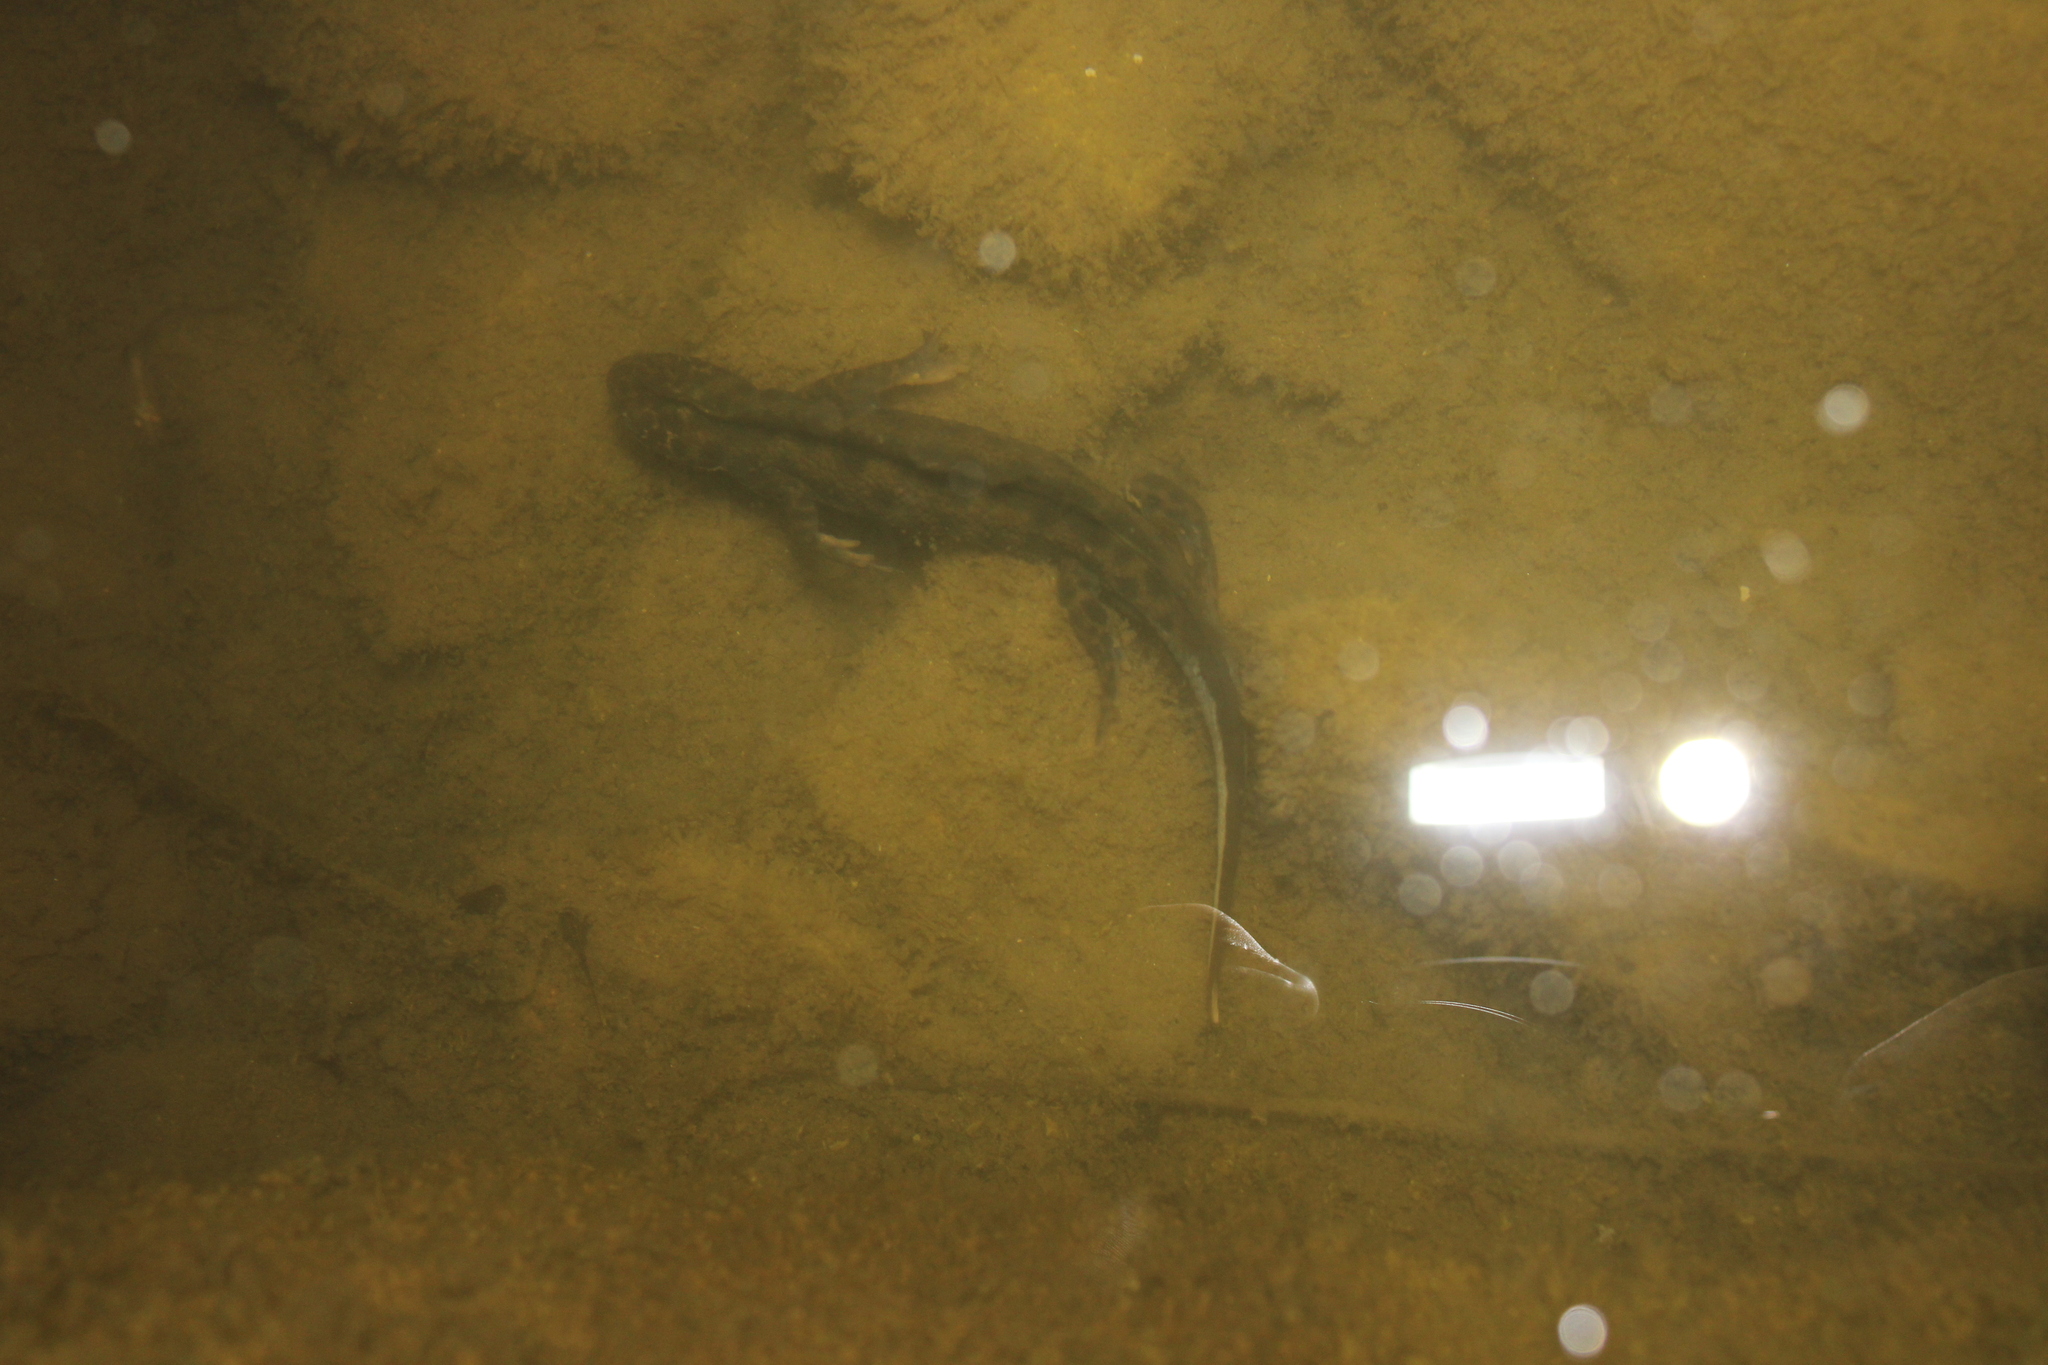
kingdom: Animalia
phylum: Chordata
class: Amphibia
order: Caudata
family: Salamandridae
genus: Triturus
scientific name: Triturus carnifex
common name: Italian crested newt
